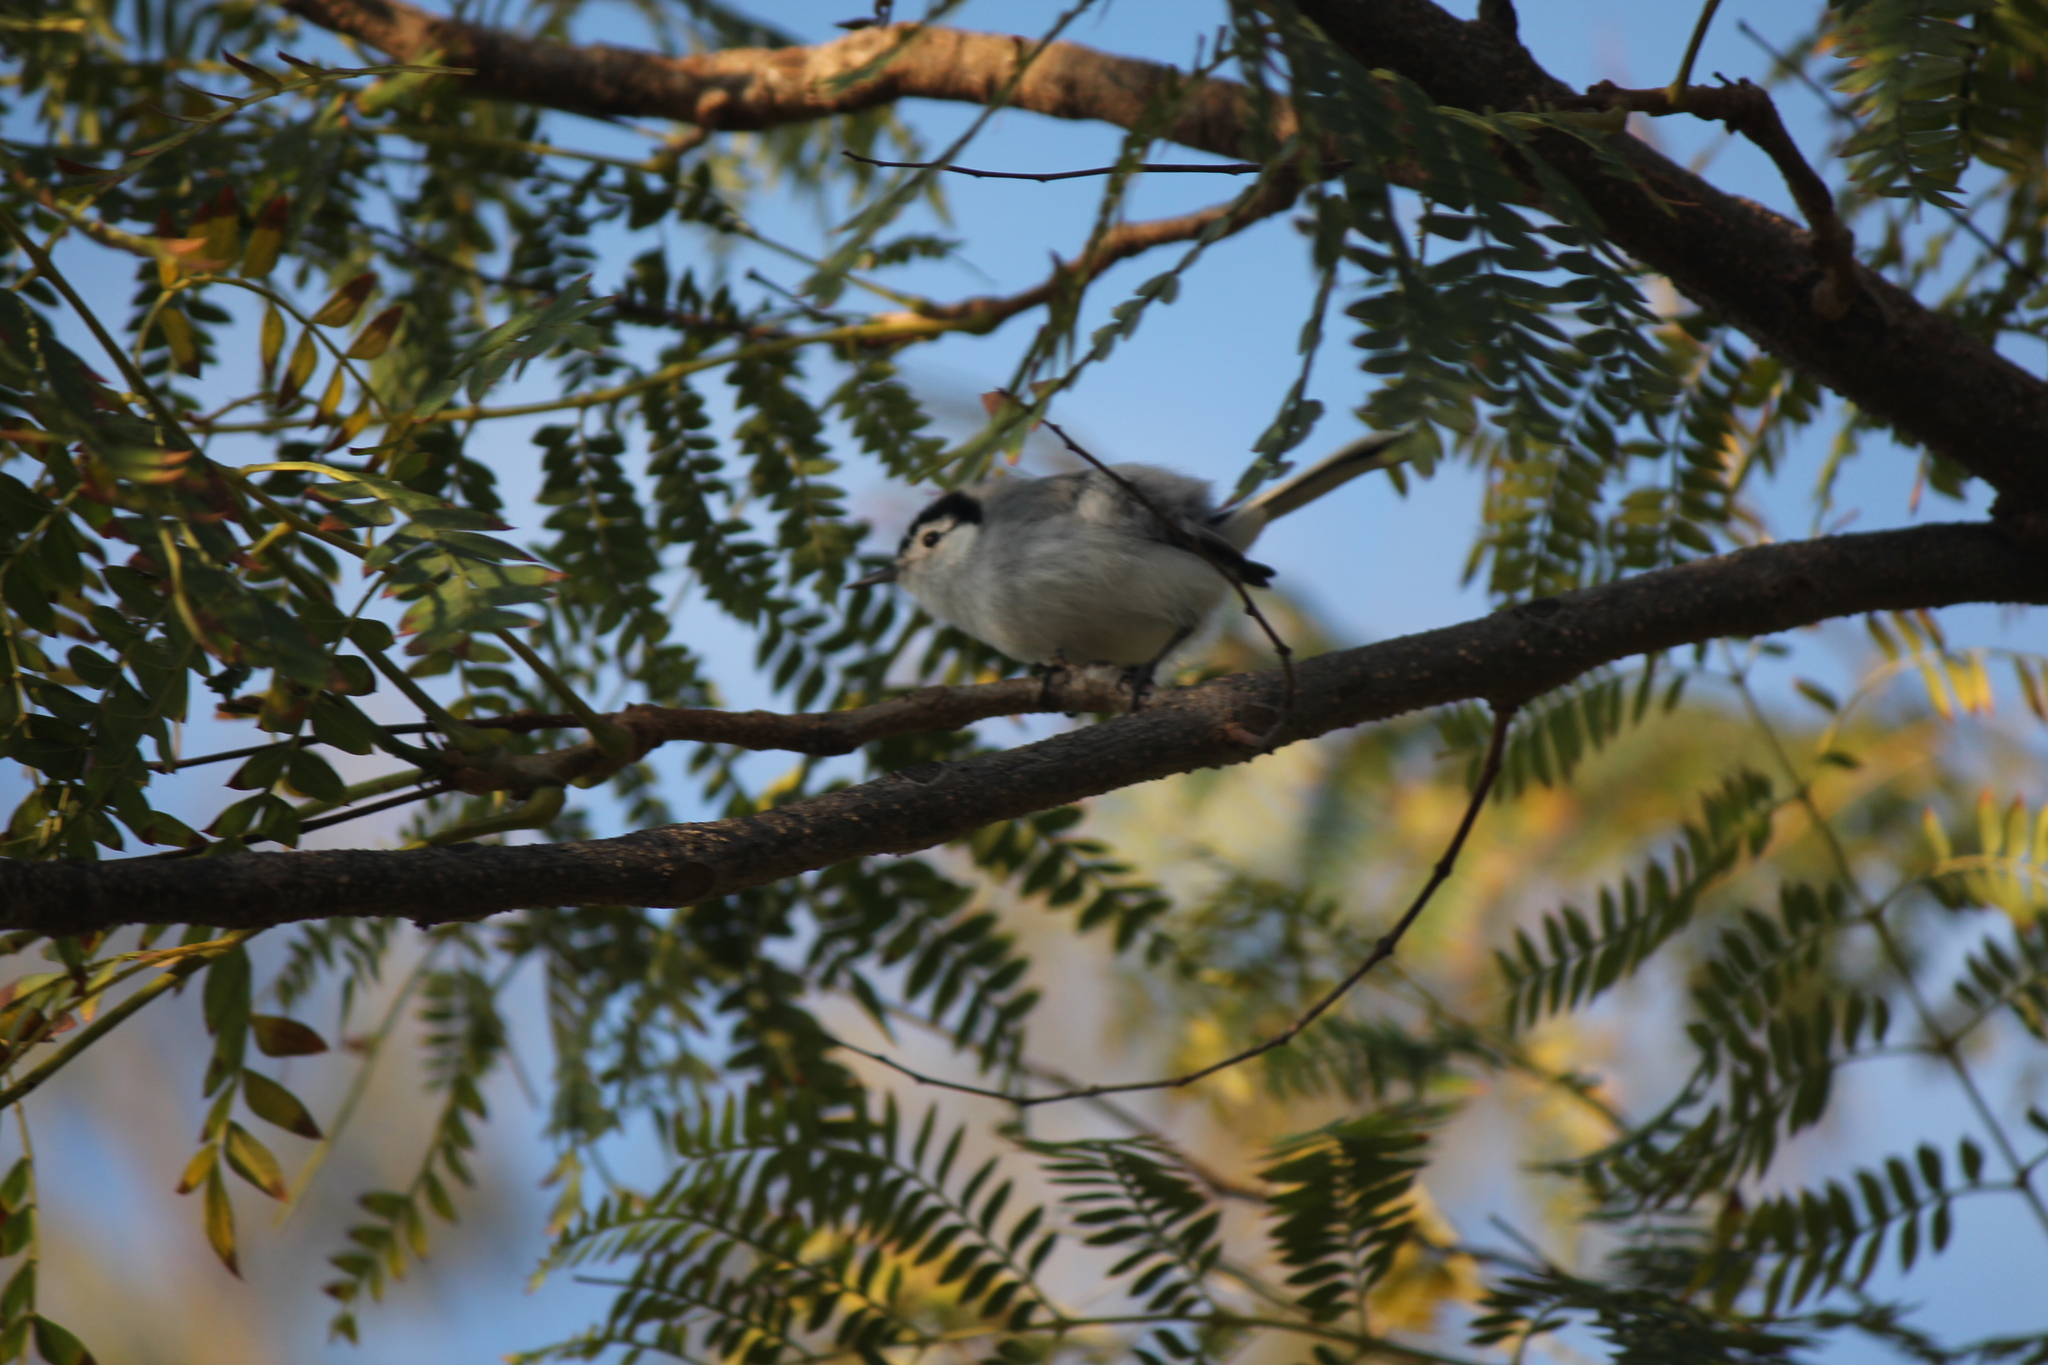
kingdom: Animalia
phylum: Chordata
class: Aves
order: Passeriformes
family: Polioptilidae
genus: Polioptila
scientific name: Polioptila plumbea
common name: Tropical gnatcatcher
